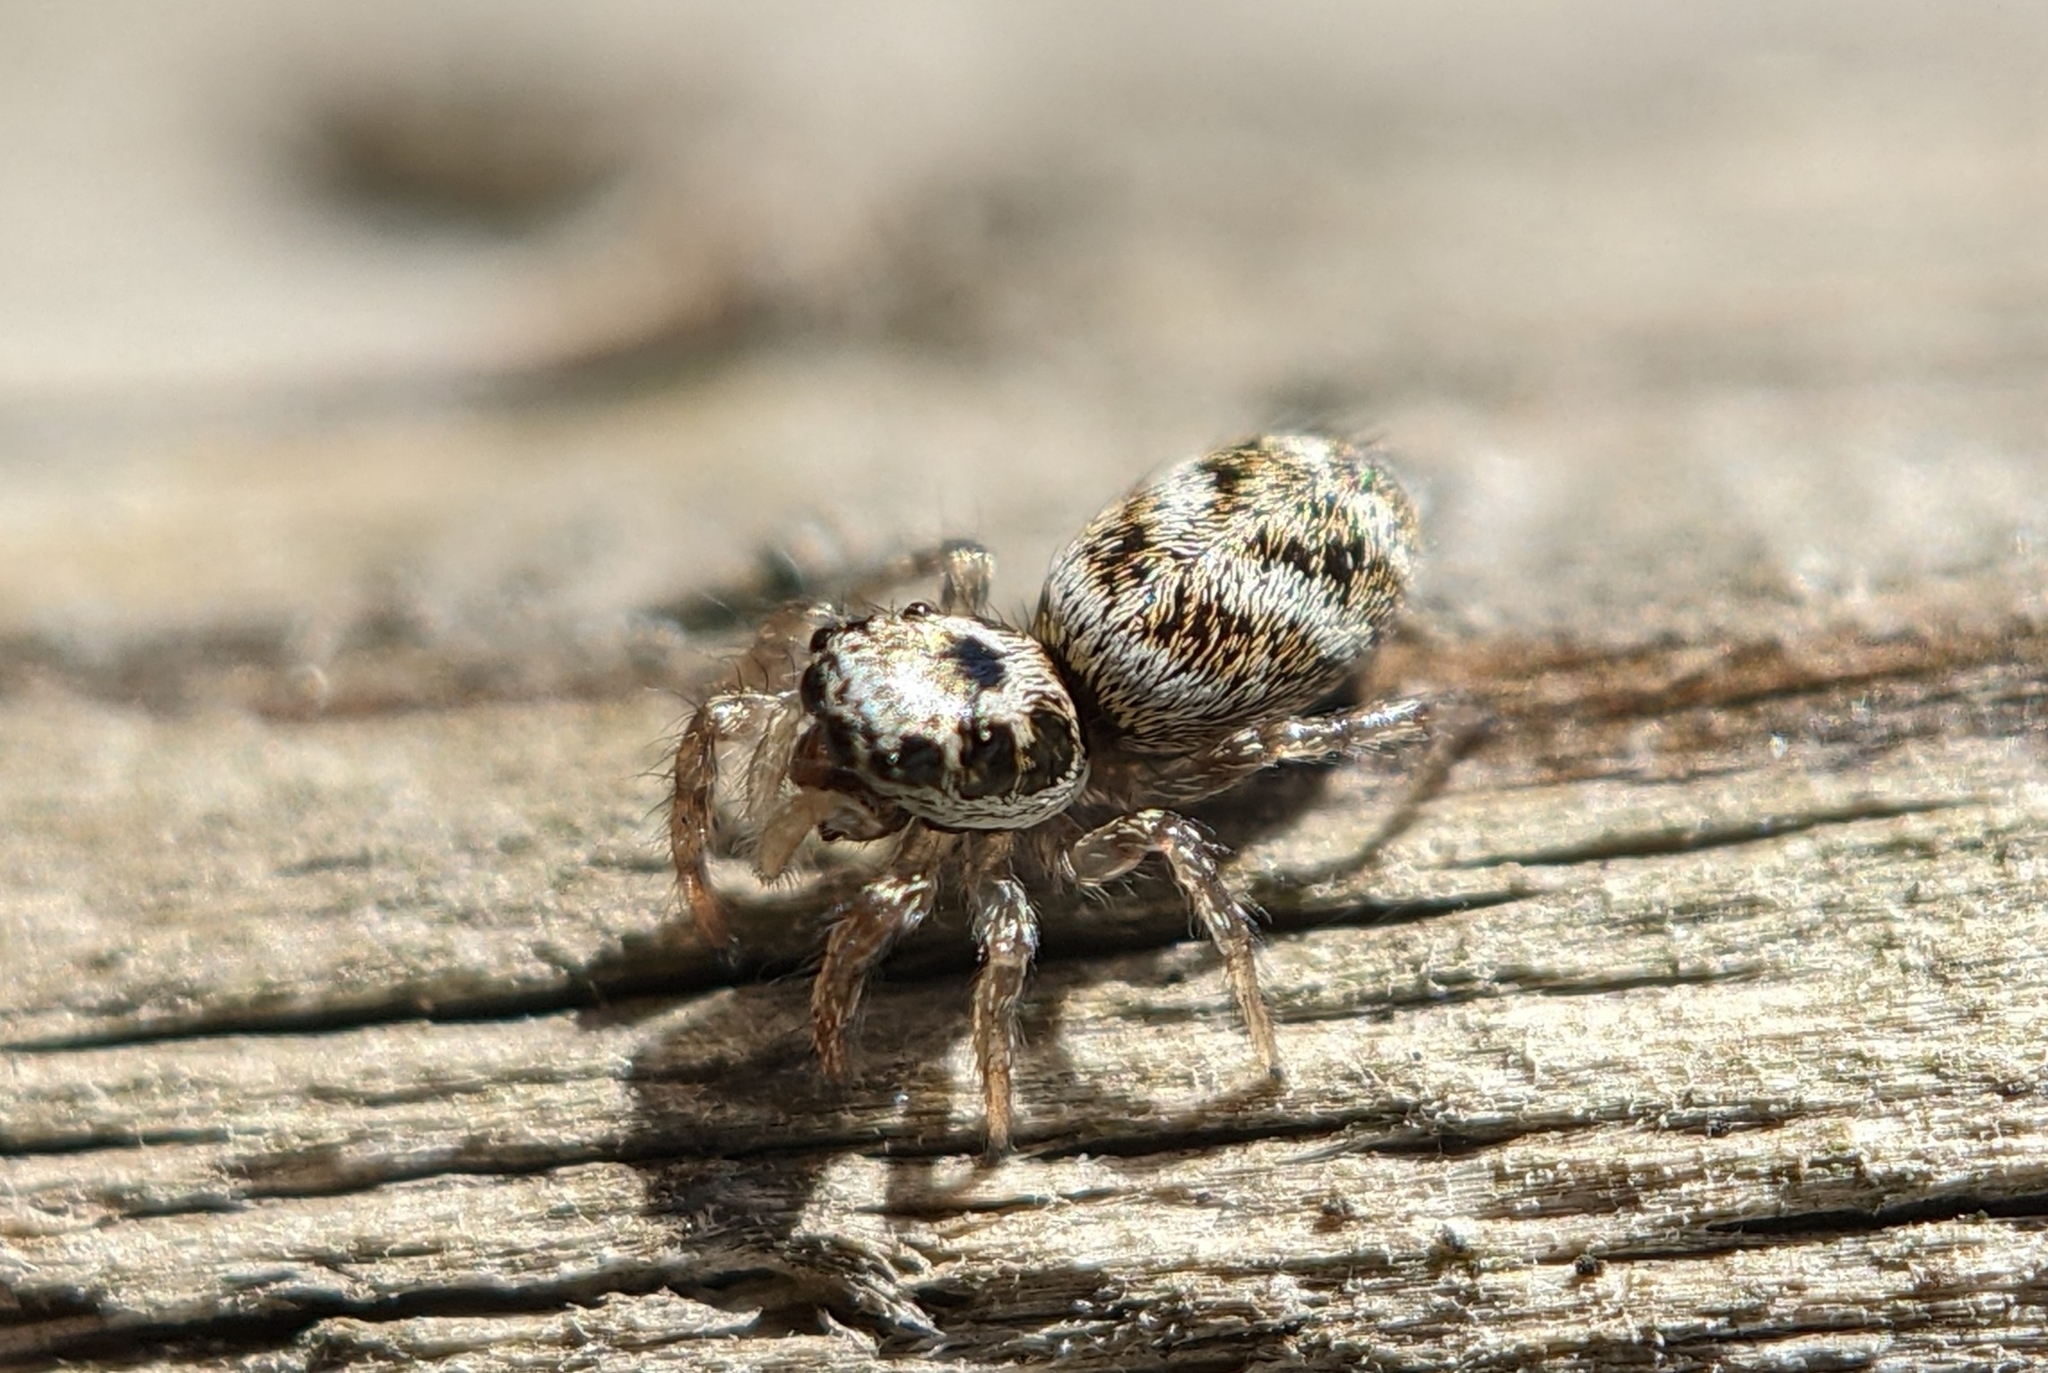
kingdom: Animalia
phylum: Arthropoda
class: Arachnida
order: Araneae
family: Salticidae
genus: Salticus
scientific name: Salticus scenicus
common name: Zebra jumper
